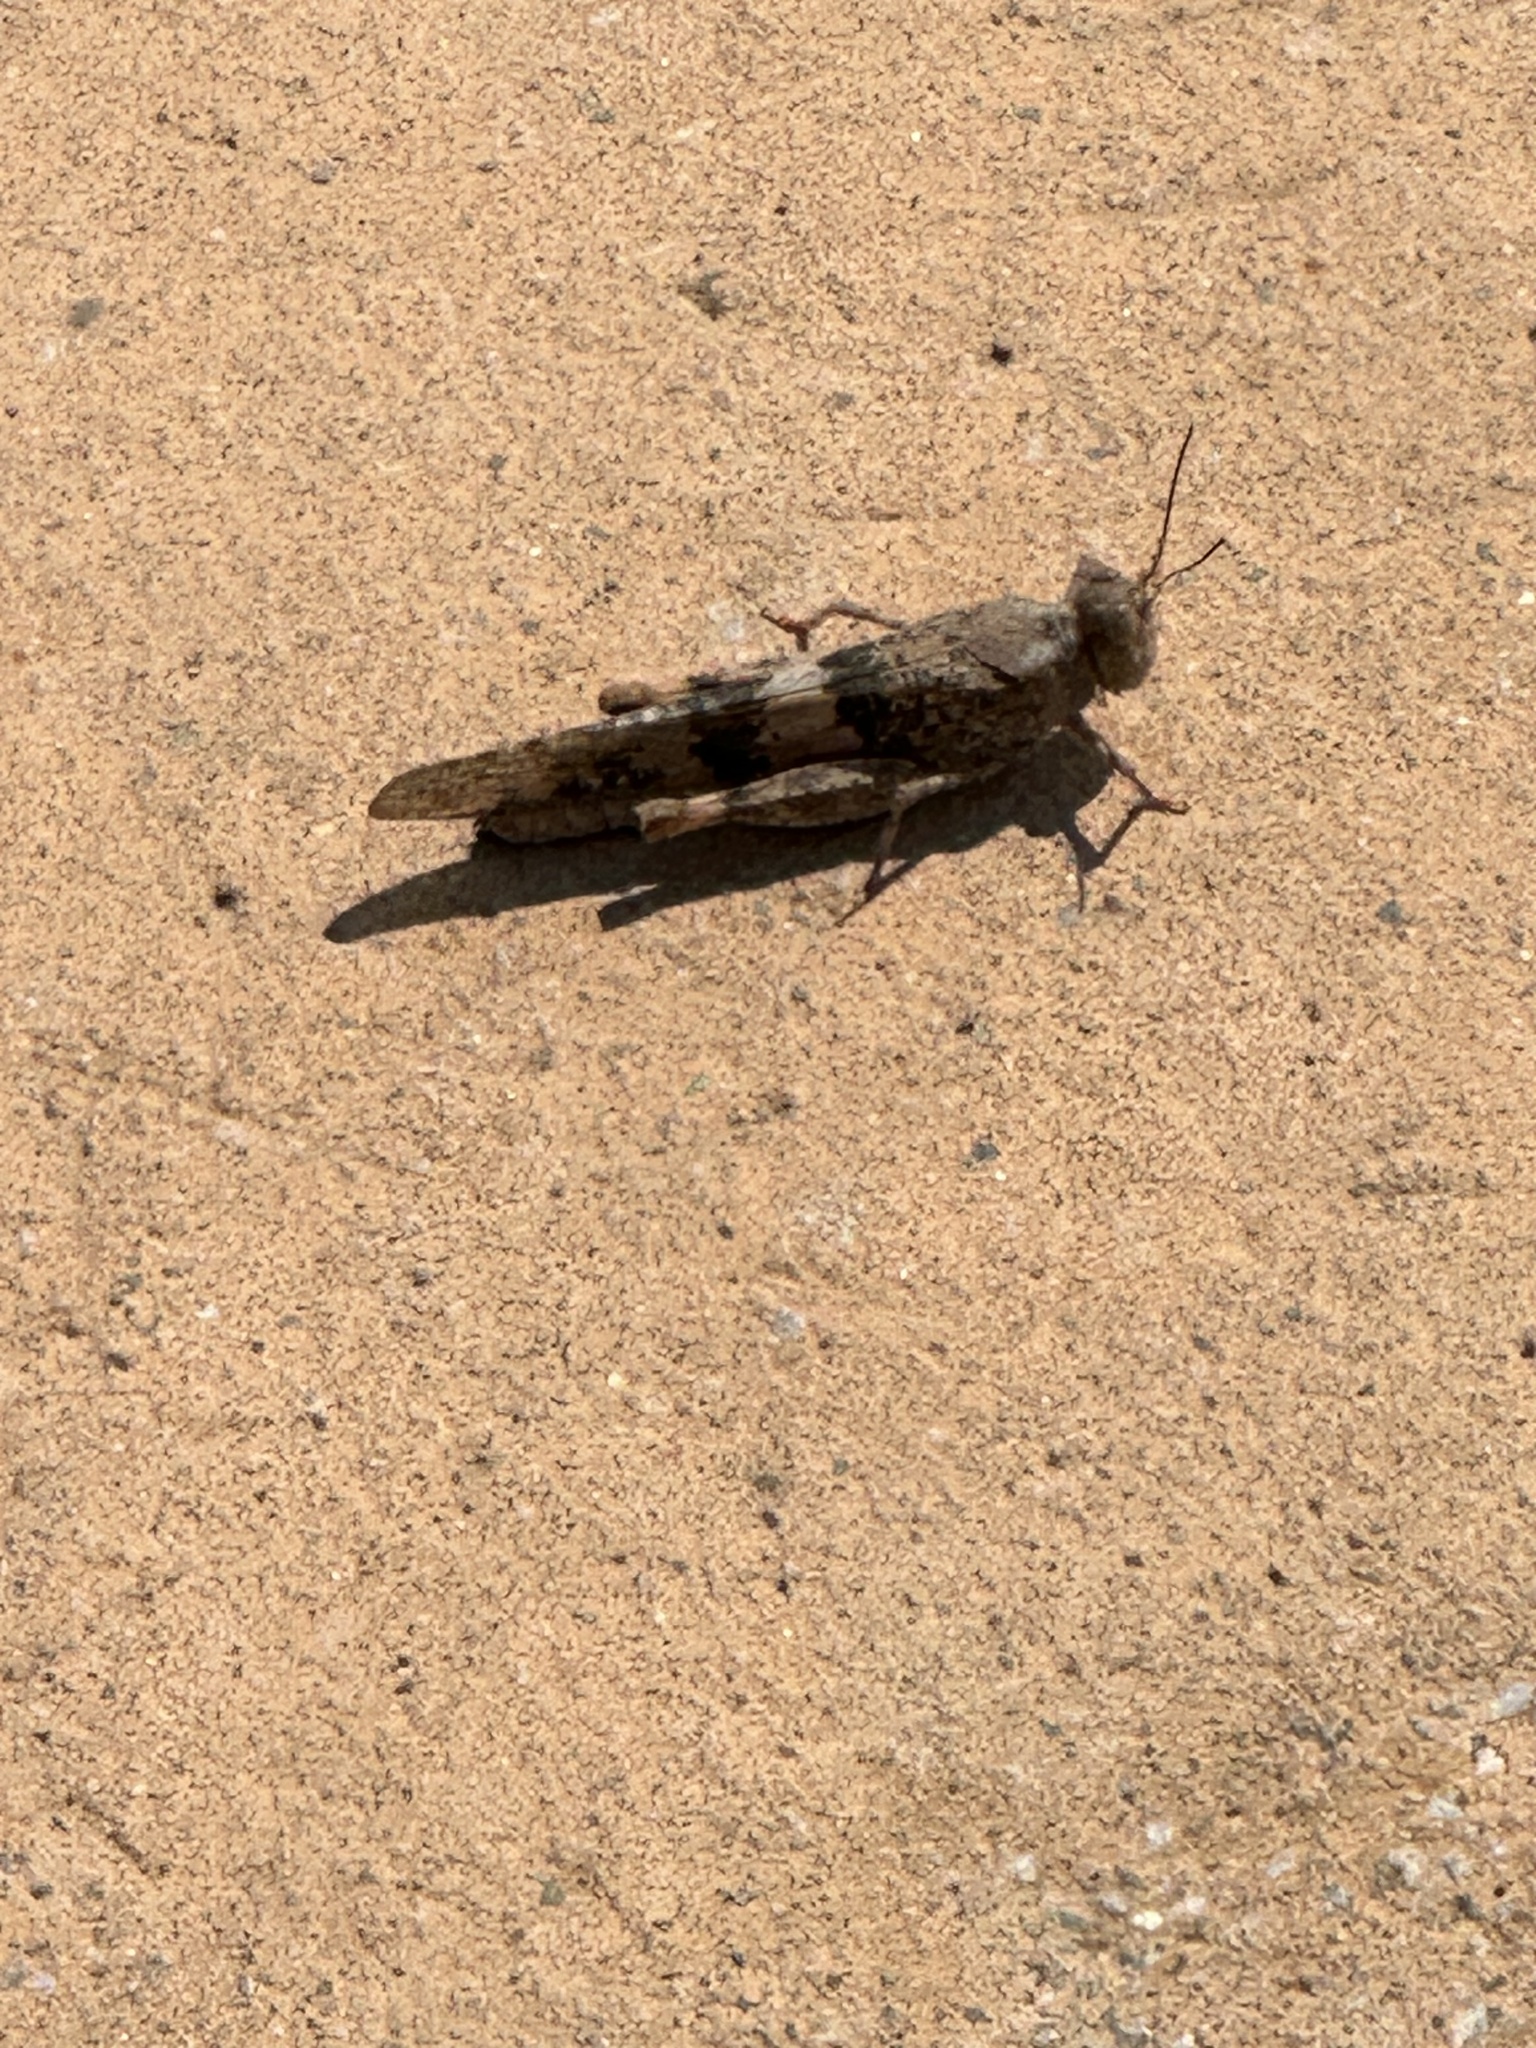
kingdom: Animalia
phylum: Arthropoda
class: Insecta
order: Orthoptera
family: Acrididae
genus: Trimerotropis
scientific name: Trimerotropis pallidipennis
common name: Pallid-winged grasshopper
